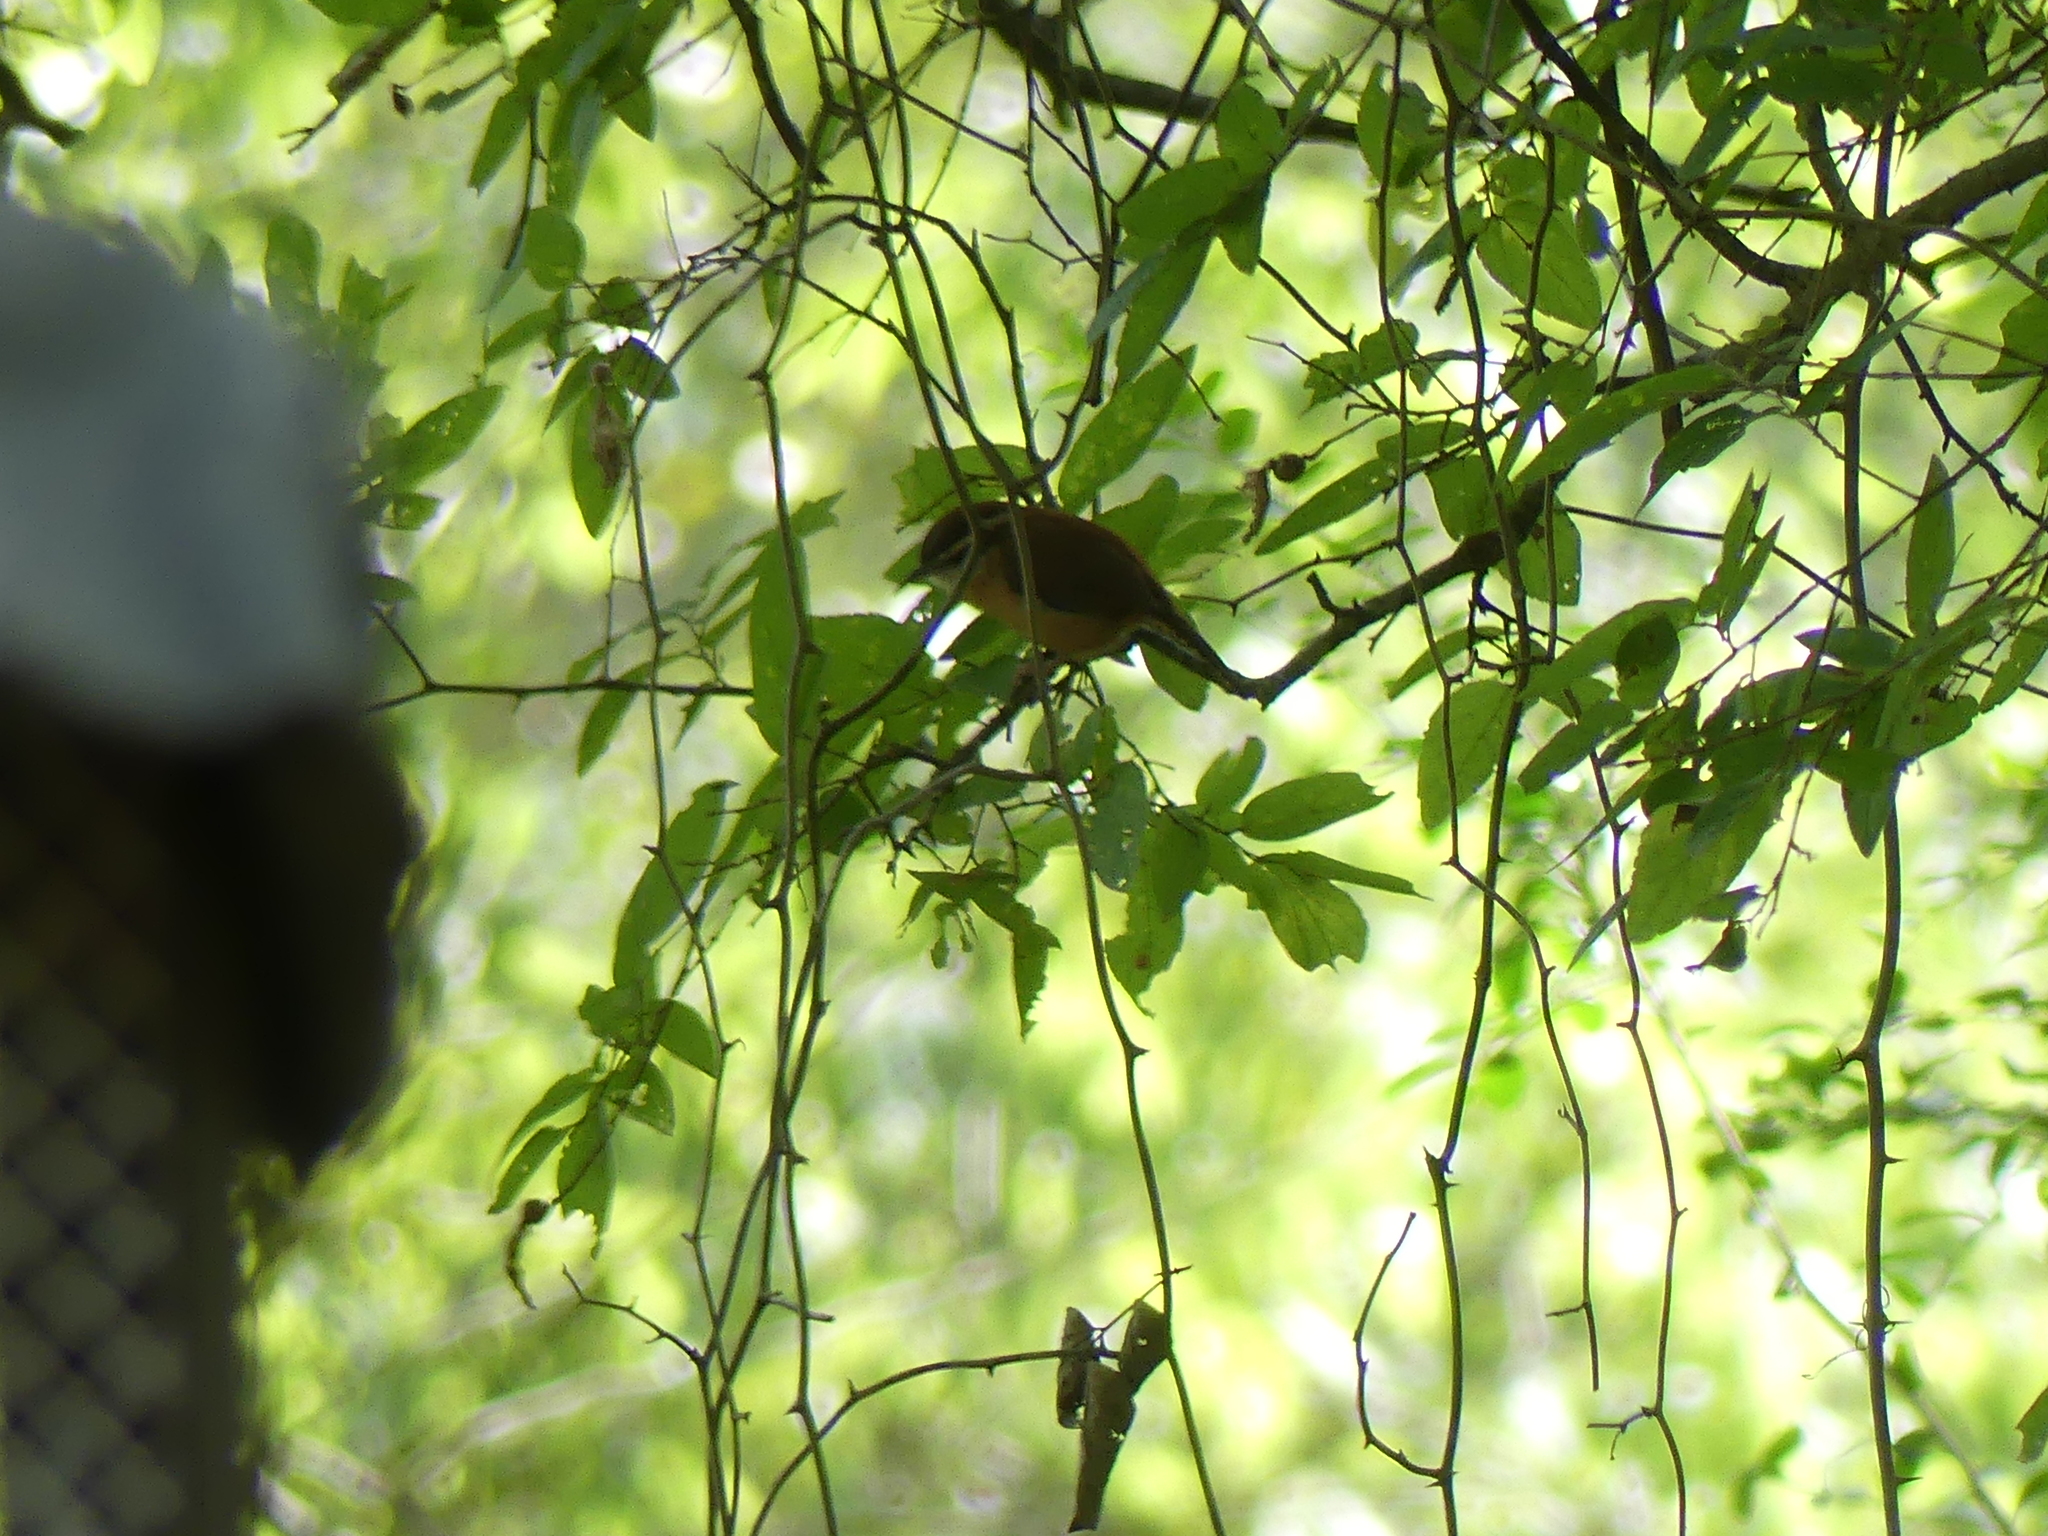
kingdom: Animalia
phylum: Chordata
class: Aves
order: Passeriformes
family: Troglodytidae
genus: Thryothorus
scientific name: Thryothorus ludovicianus
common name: Carolina wren
